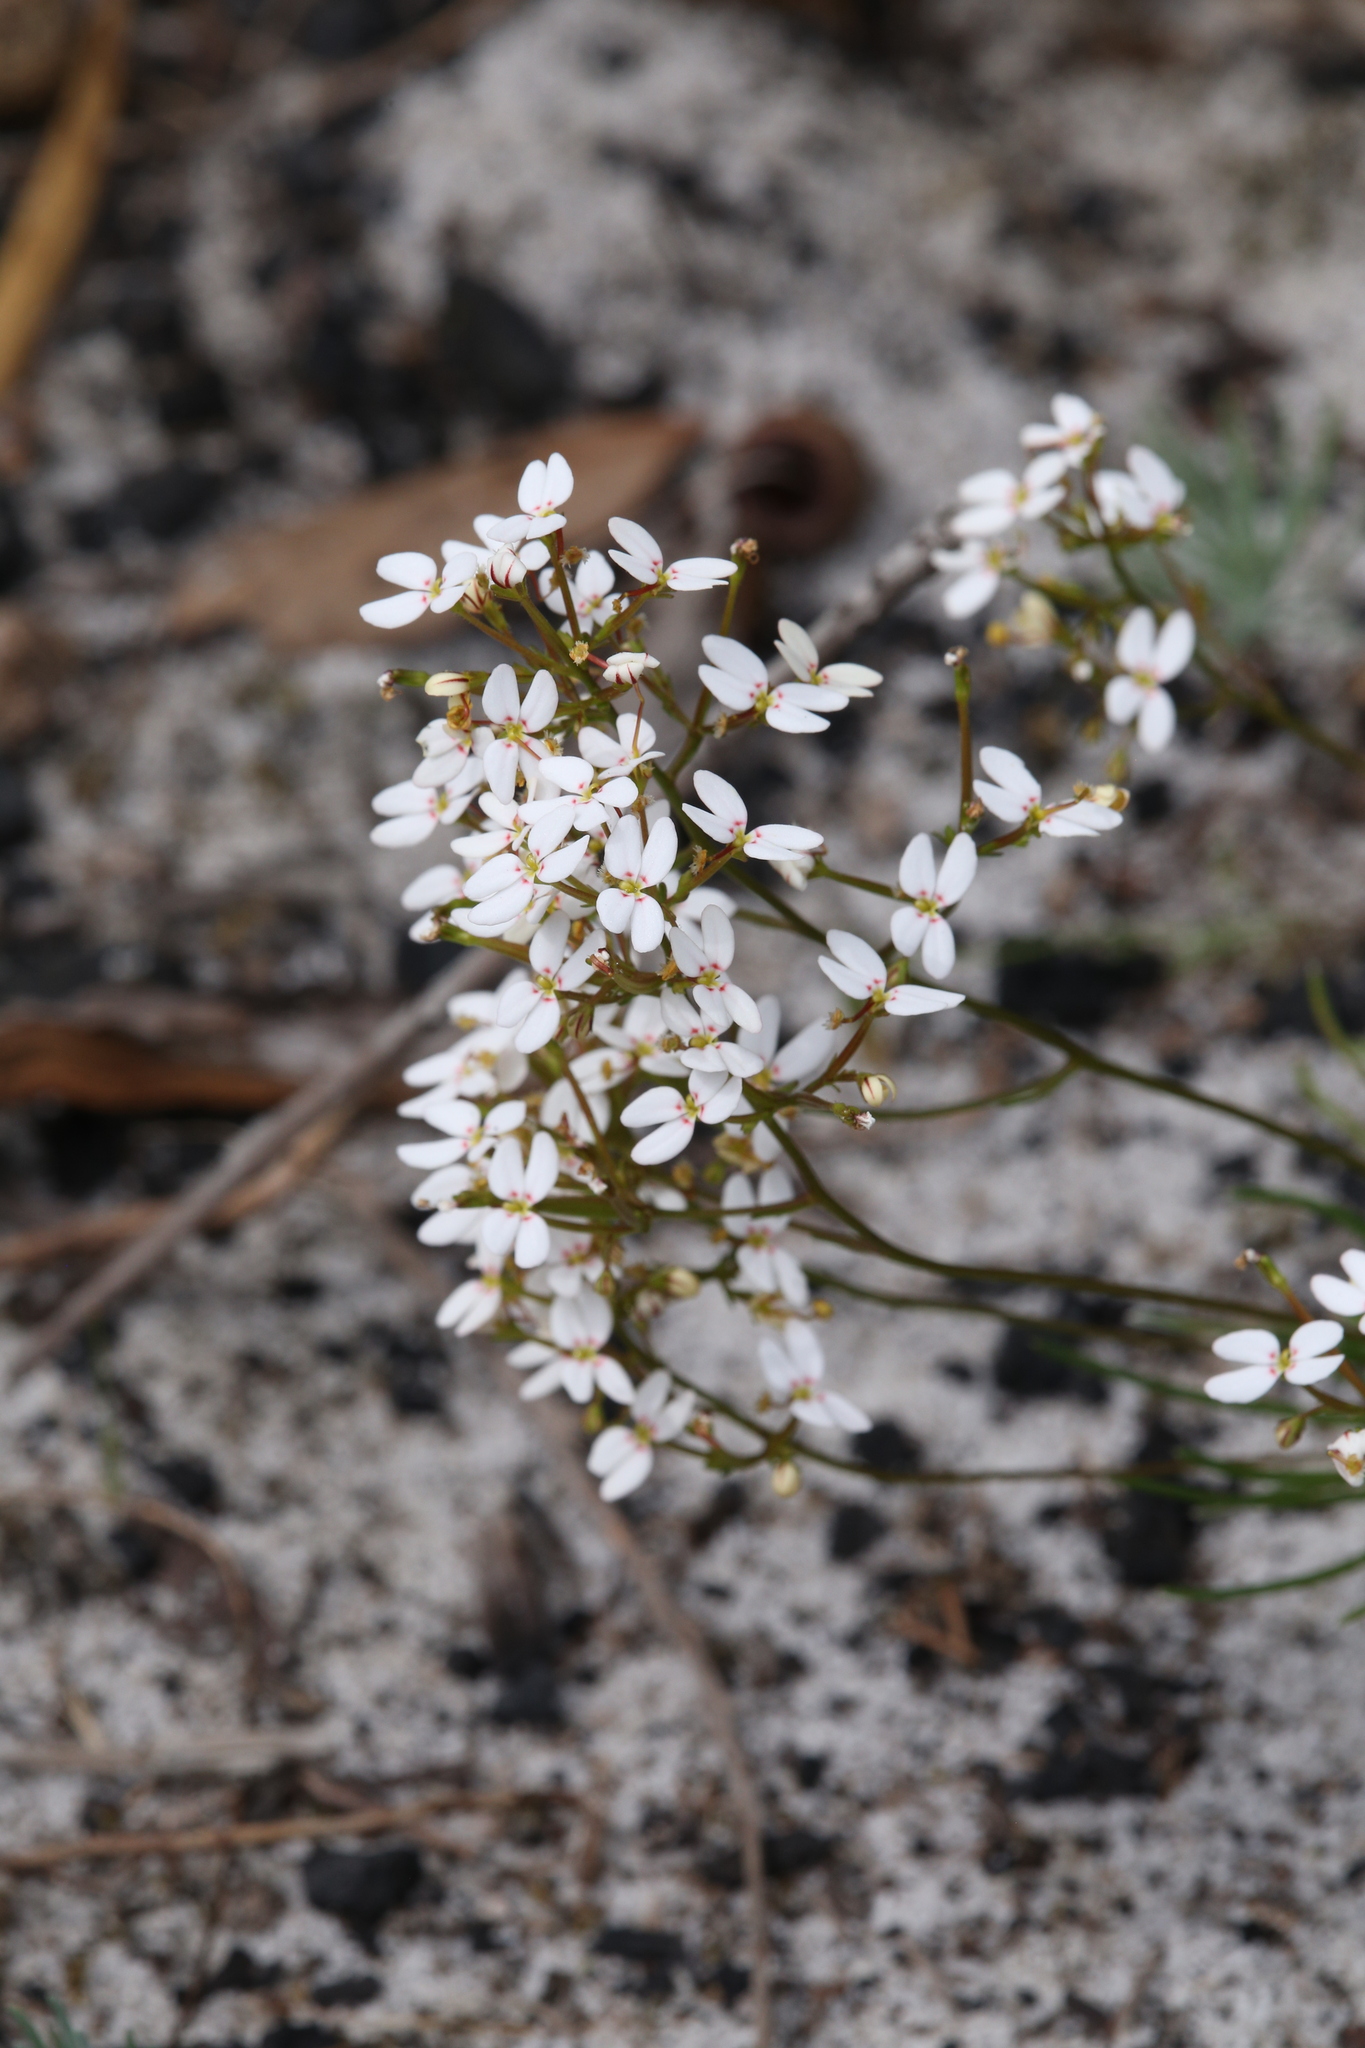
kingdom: Plantae
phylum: Tracheophyta
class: Magnoliopsida
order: Asterales
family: Stylidiaceae
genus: Stylidium
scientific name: Stylidium rigidulum
